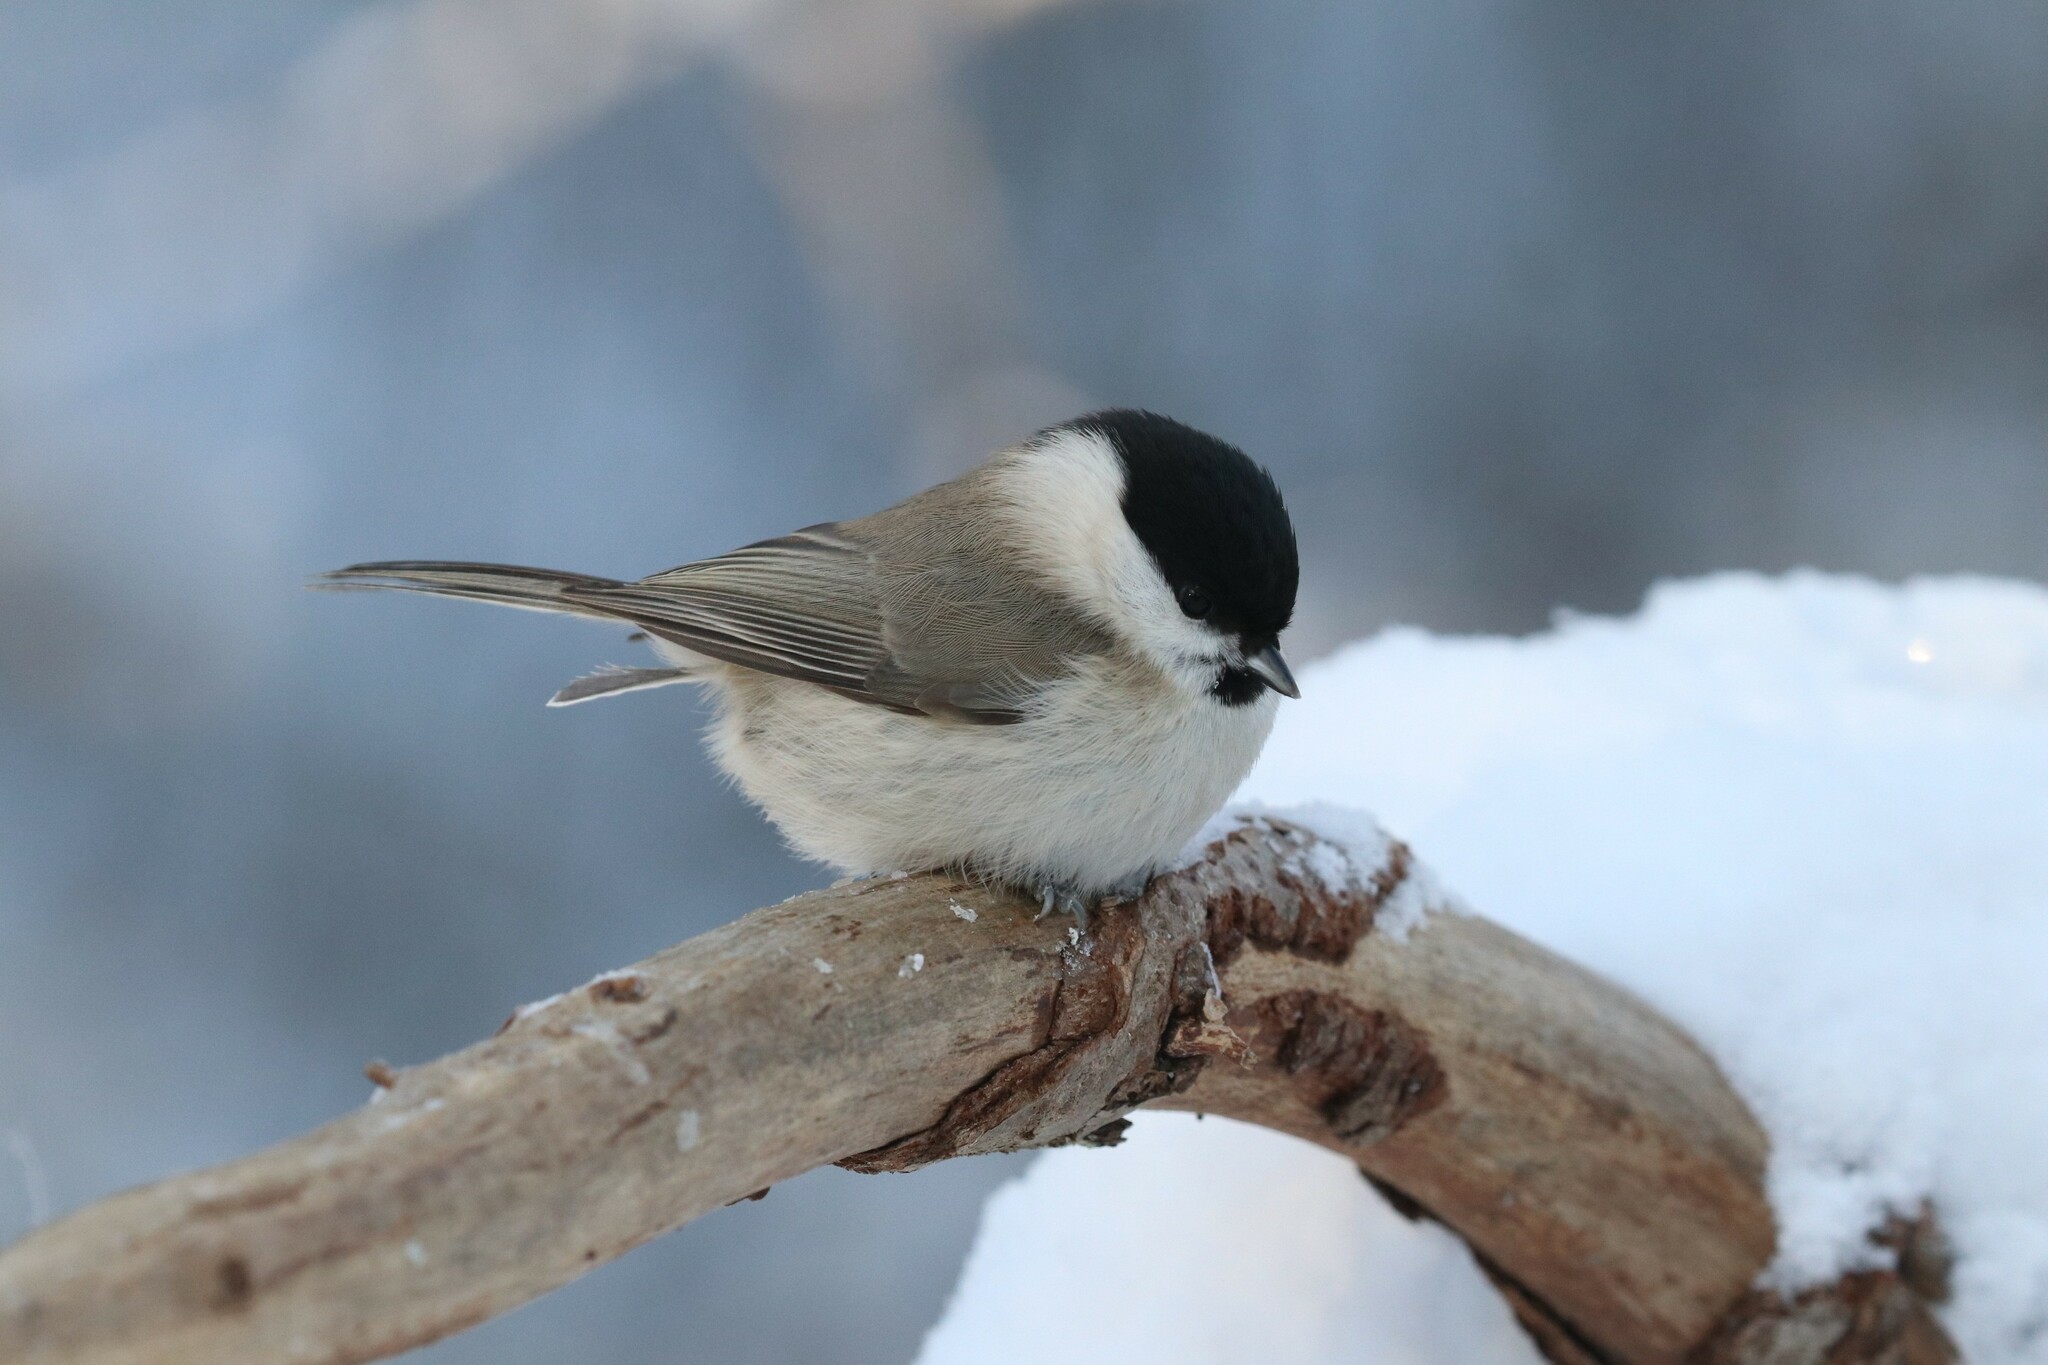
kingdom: Animalia
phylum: Chordata
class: Aves
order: Passeriformes
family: Paridae
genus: Poecile
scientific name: Poecile palustris
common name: Marsh tit
